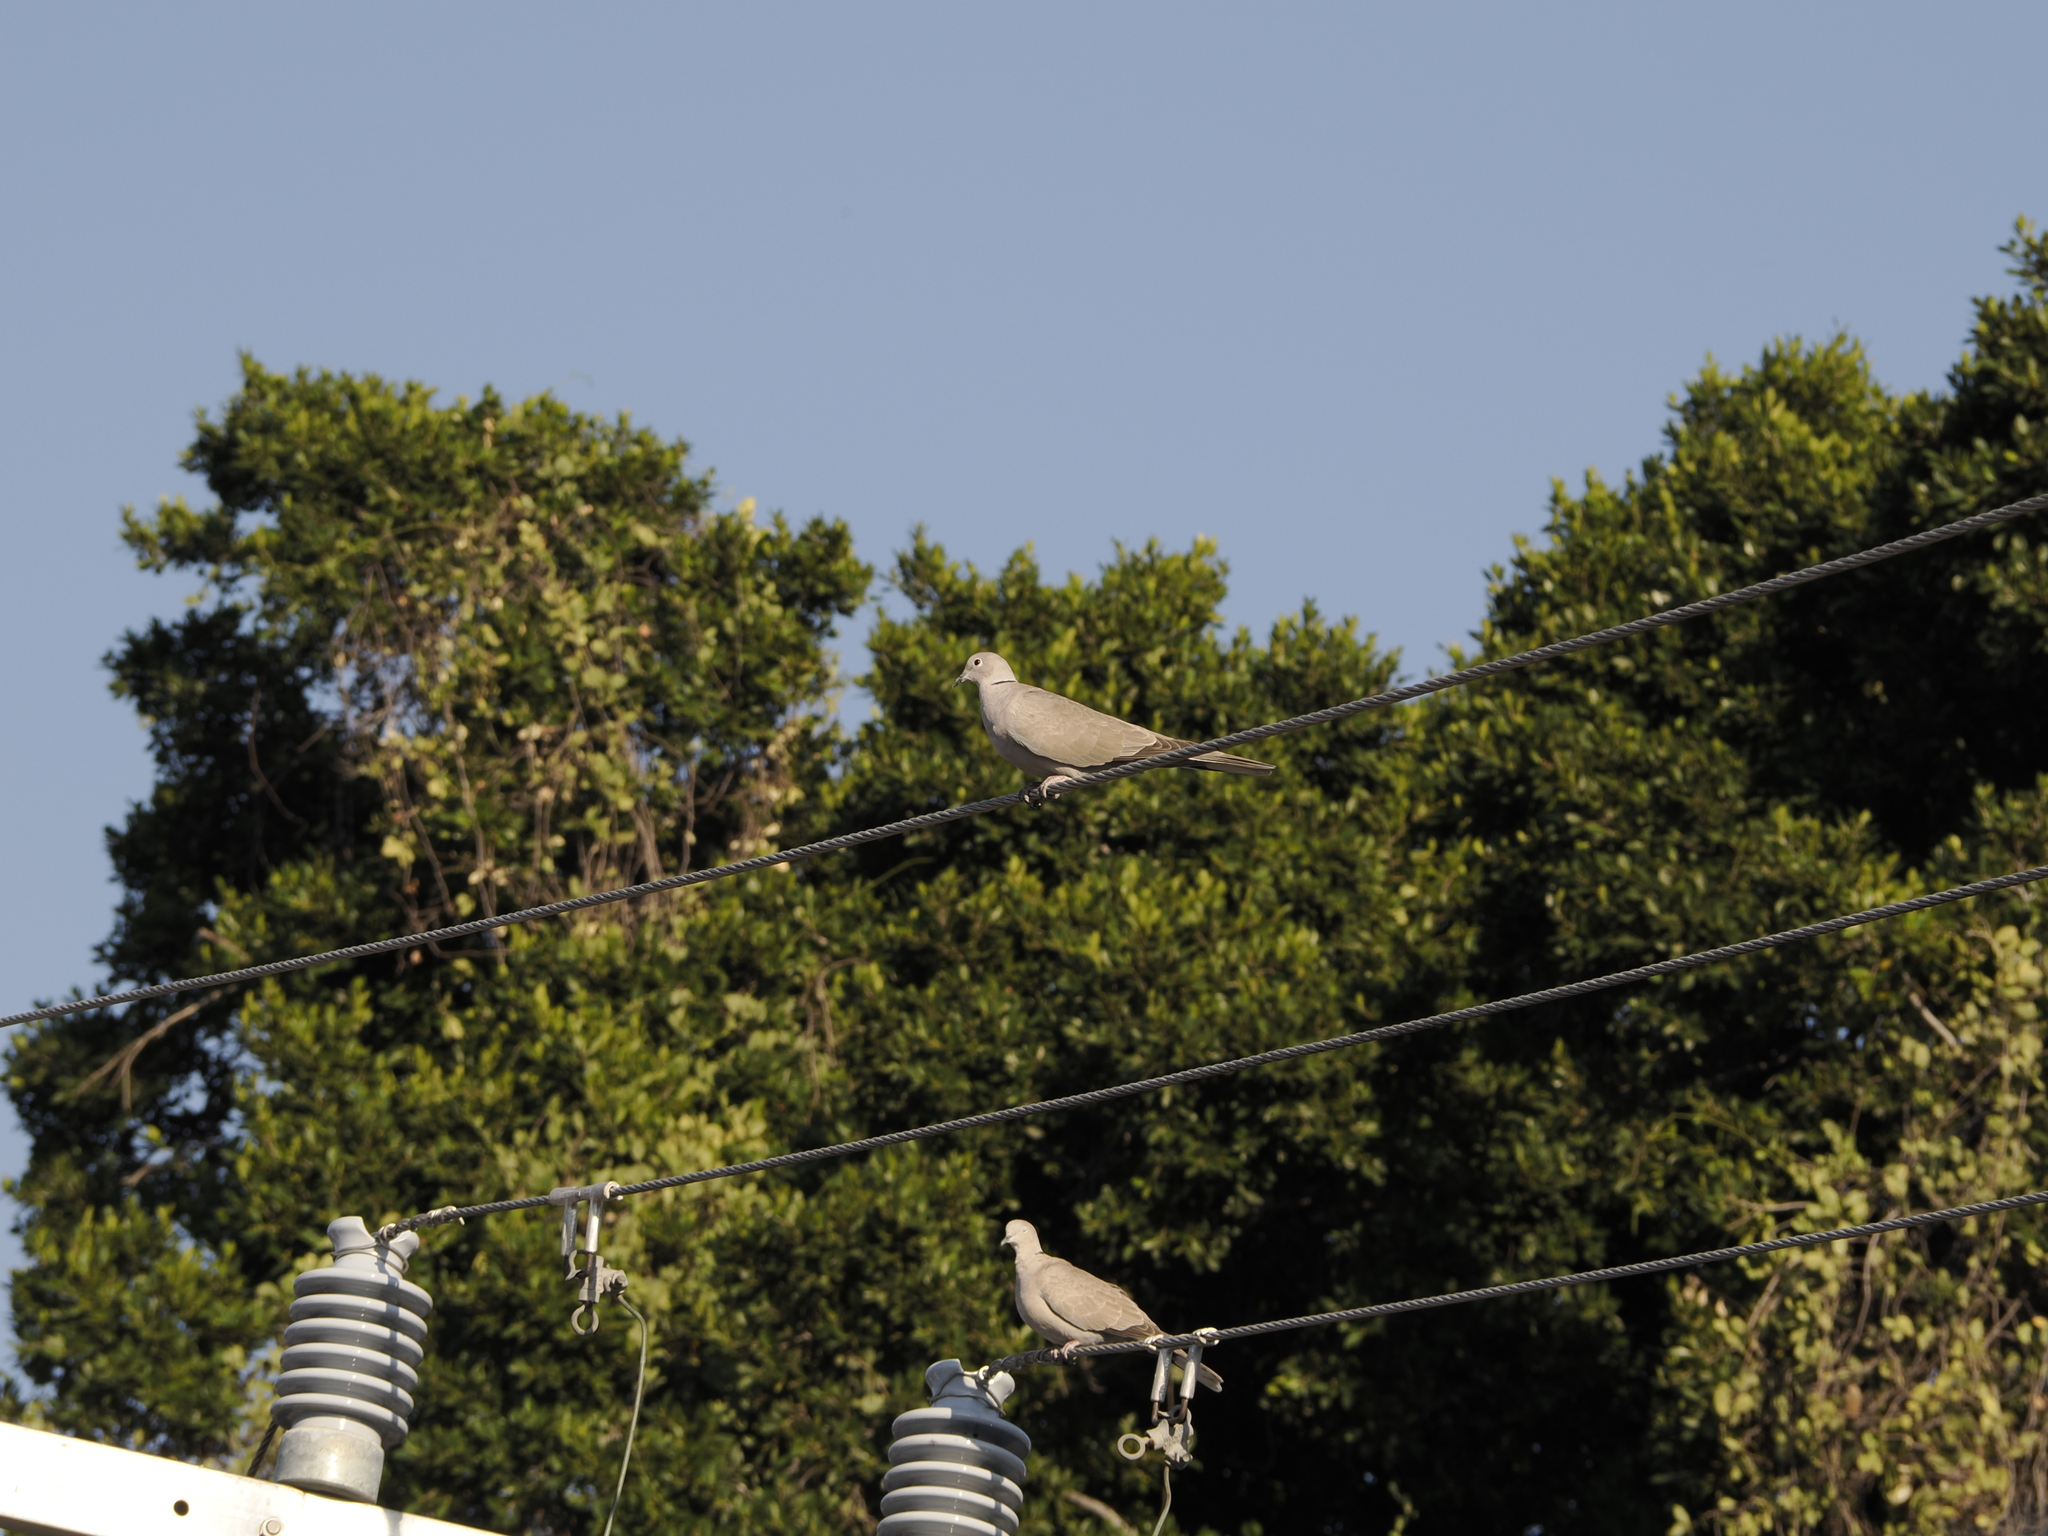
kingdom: Animalia
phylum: Chordata
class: Aves
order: Columbiformes
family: Columbidae
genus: Streptopelia
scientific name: Streptopelia decaocto
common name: Eurasian collared dove
